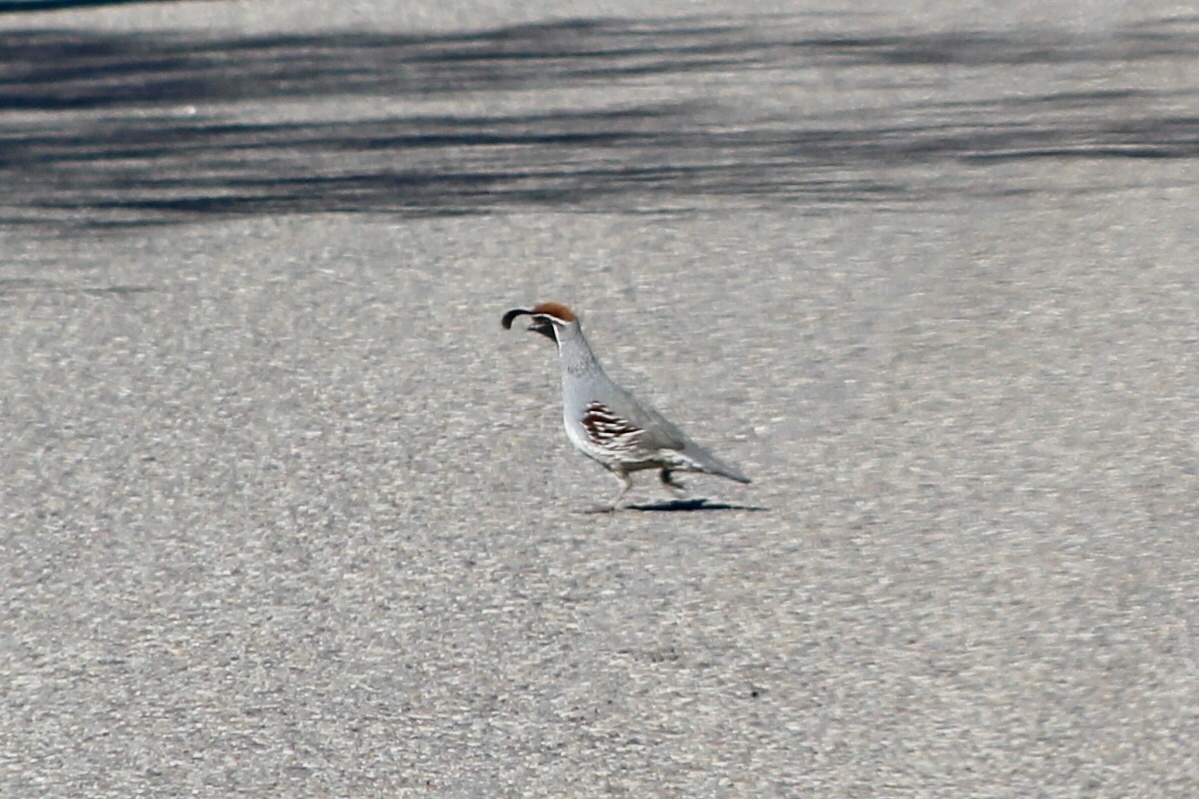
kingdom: Animalia
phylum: Chordata
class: Aves
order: Galliformes
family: Odontophoridae
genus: Callipepla
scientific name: Callipepla gambelii
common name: Gambel's quail
